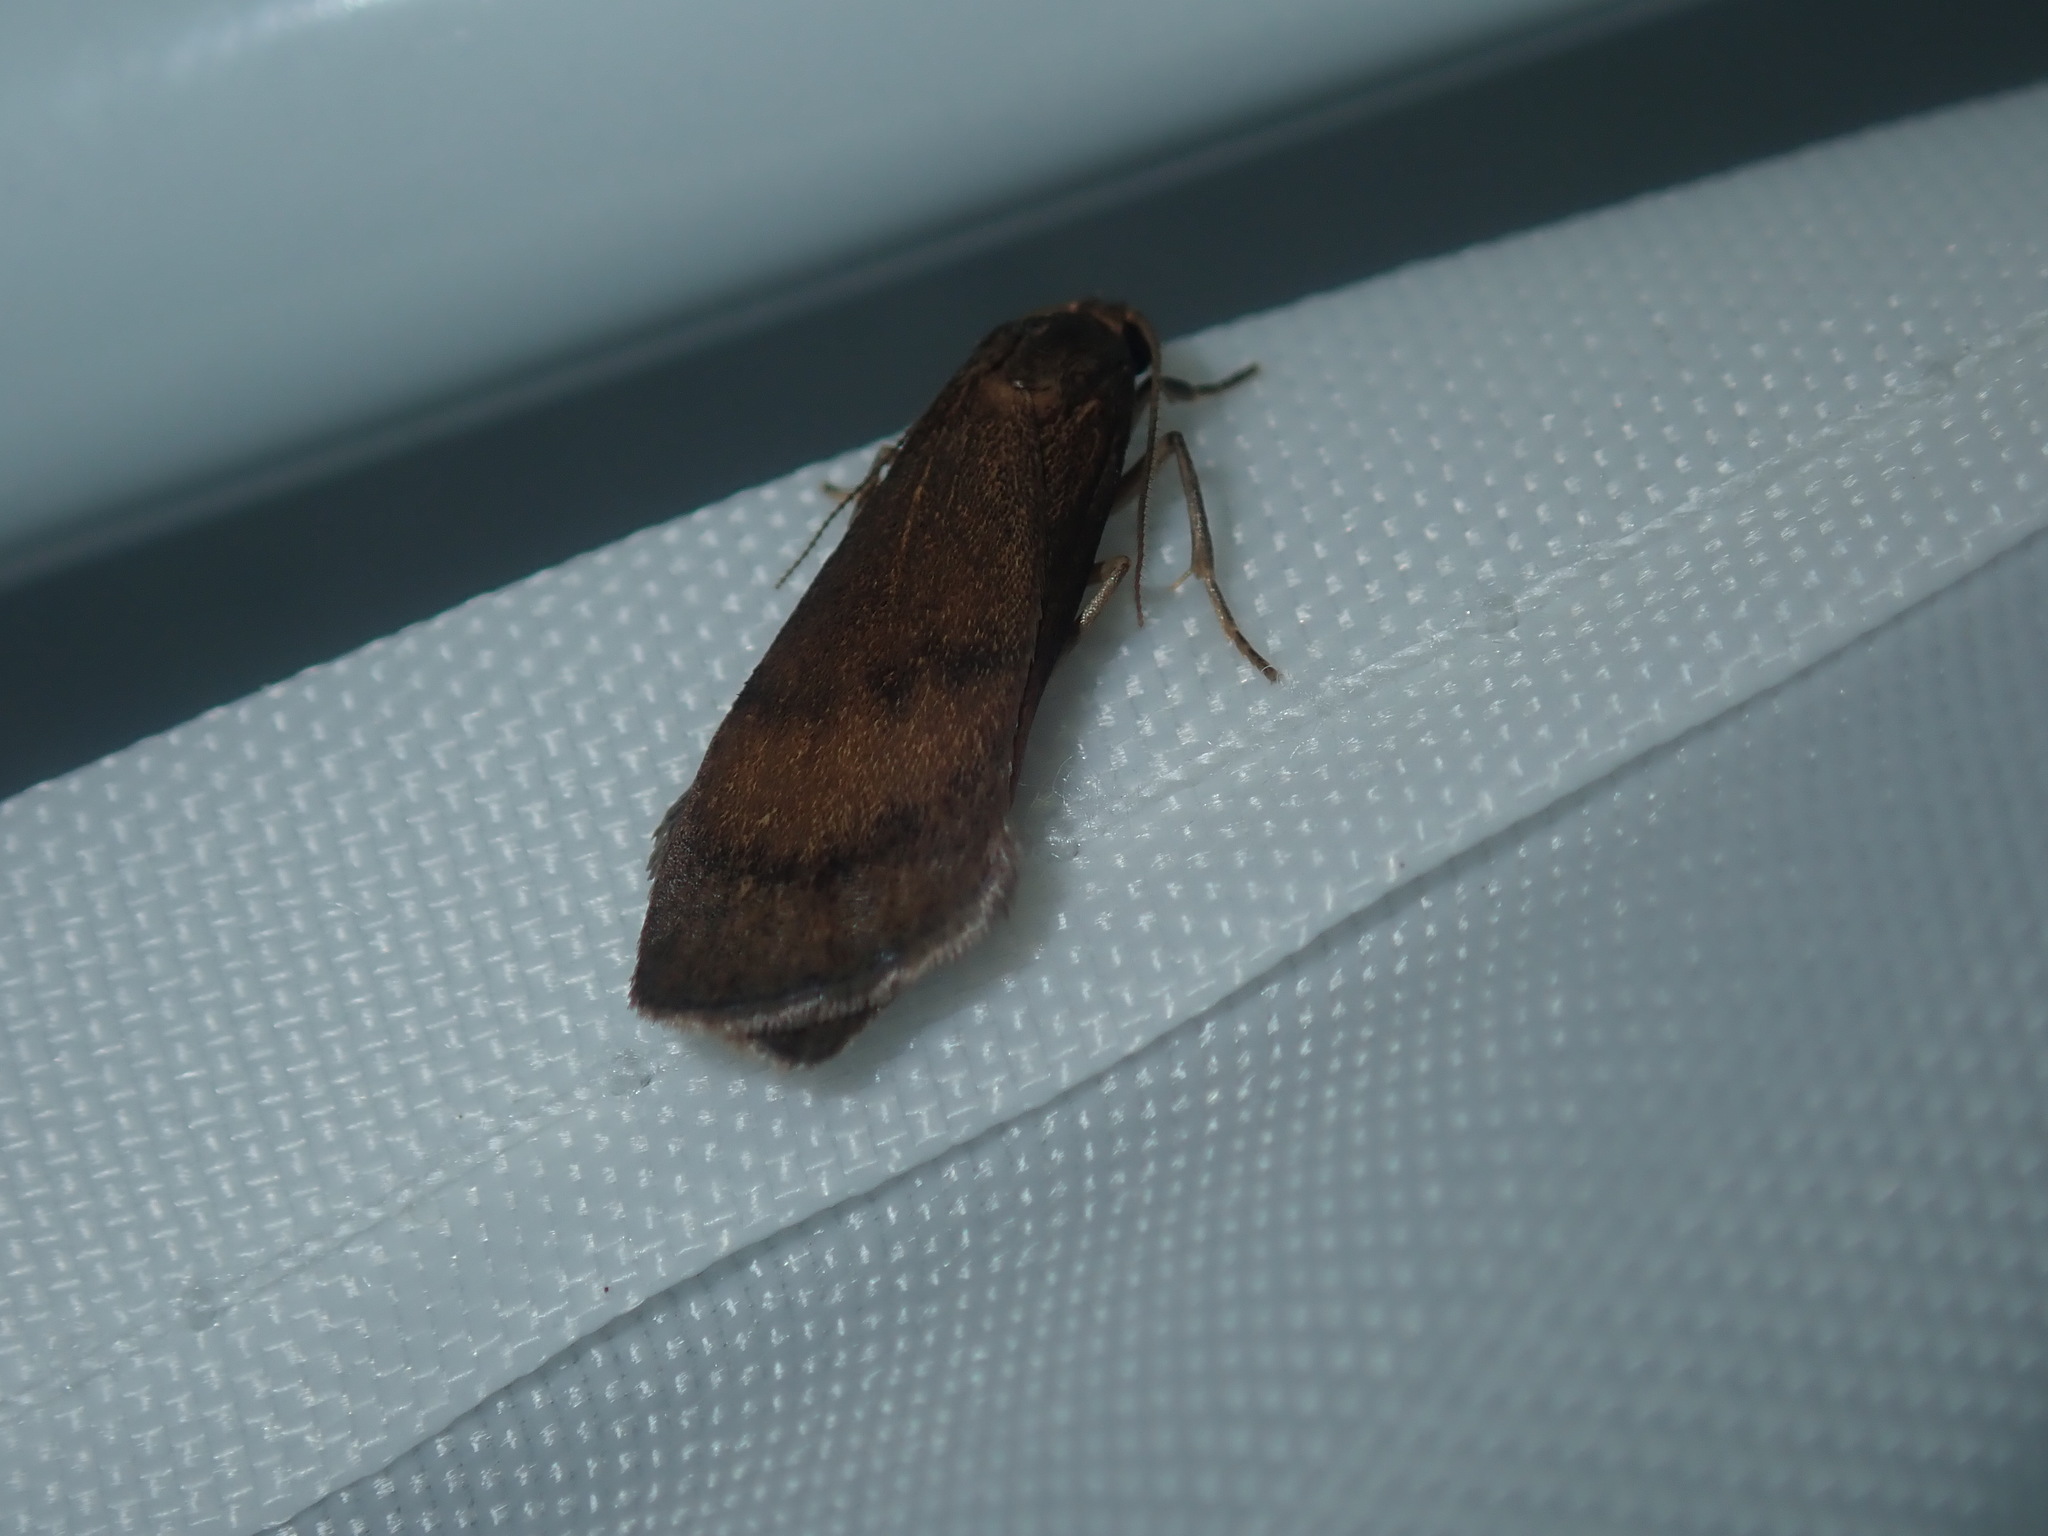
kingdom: Animalia
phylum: Arthropoda
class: Insecta
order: Lepidoptera
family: Erebidae
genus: Lambula
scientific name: Lambula obliquilinea
